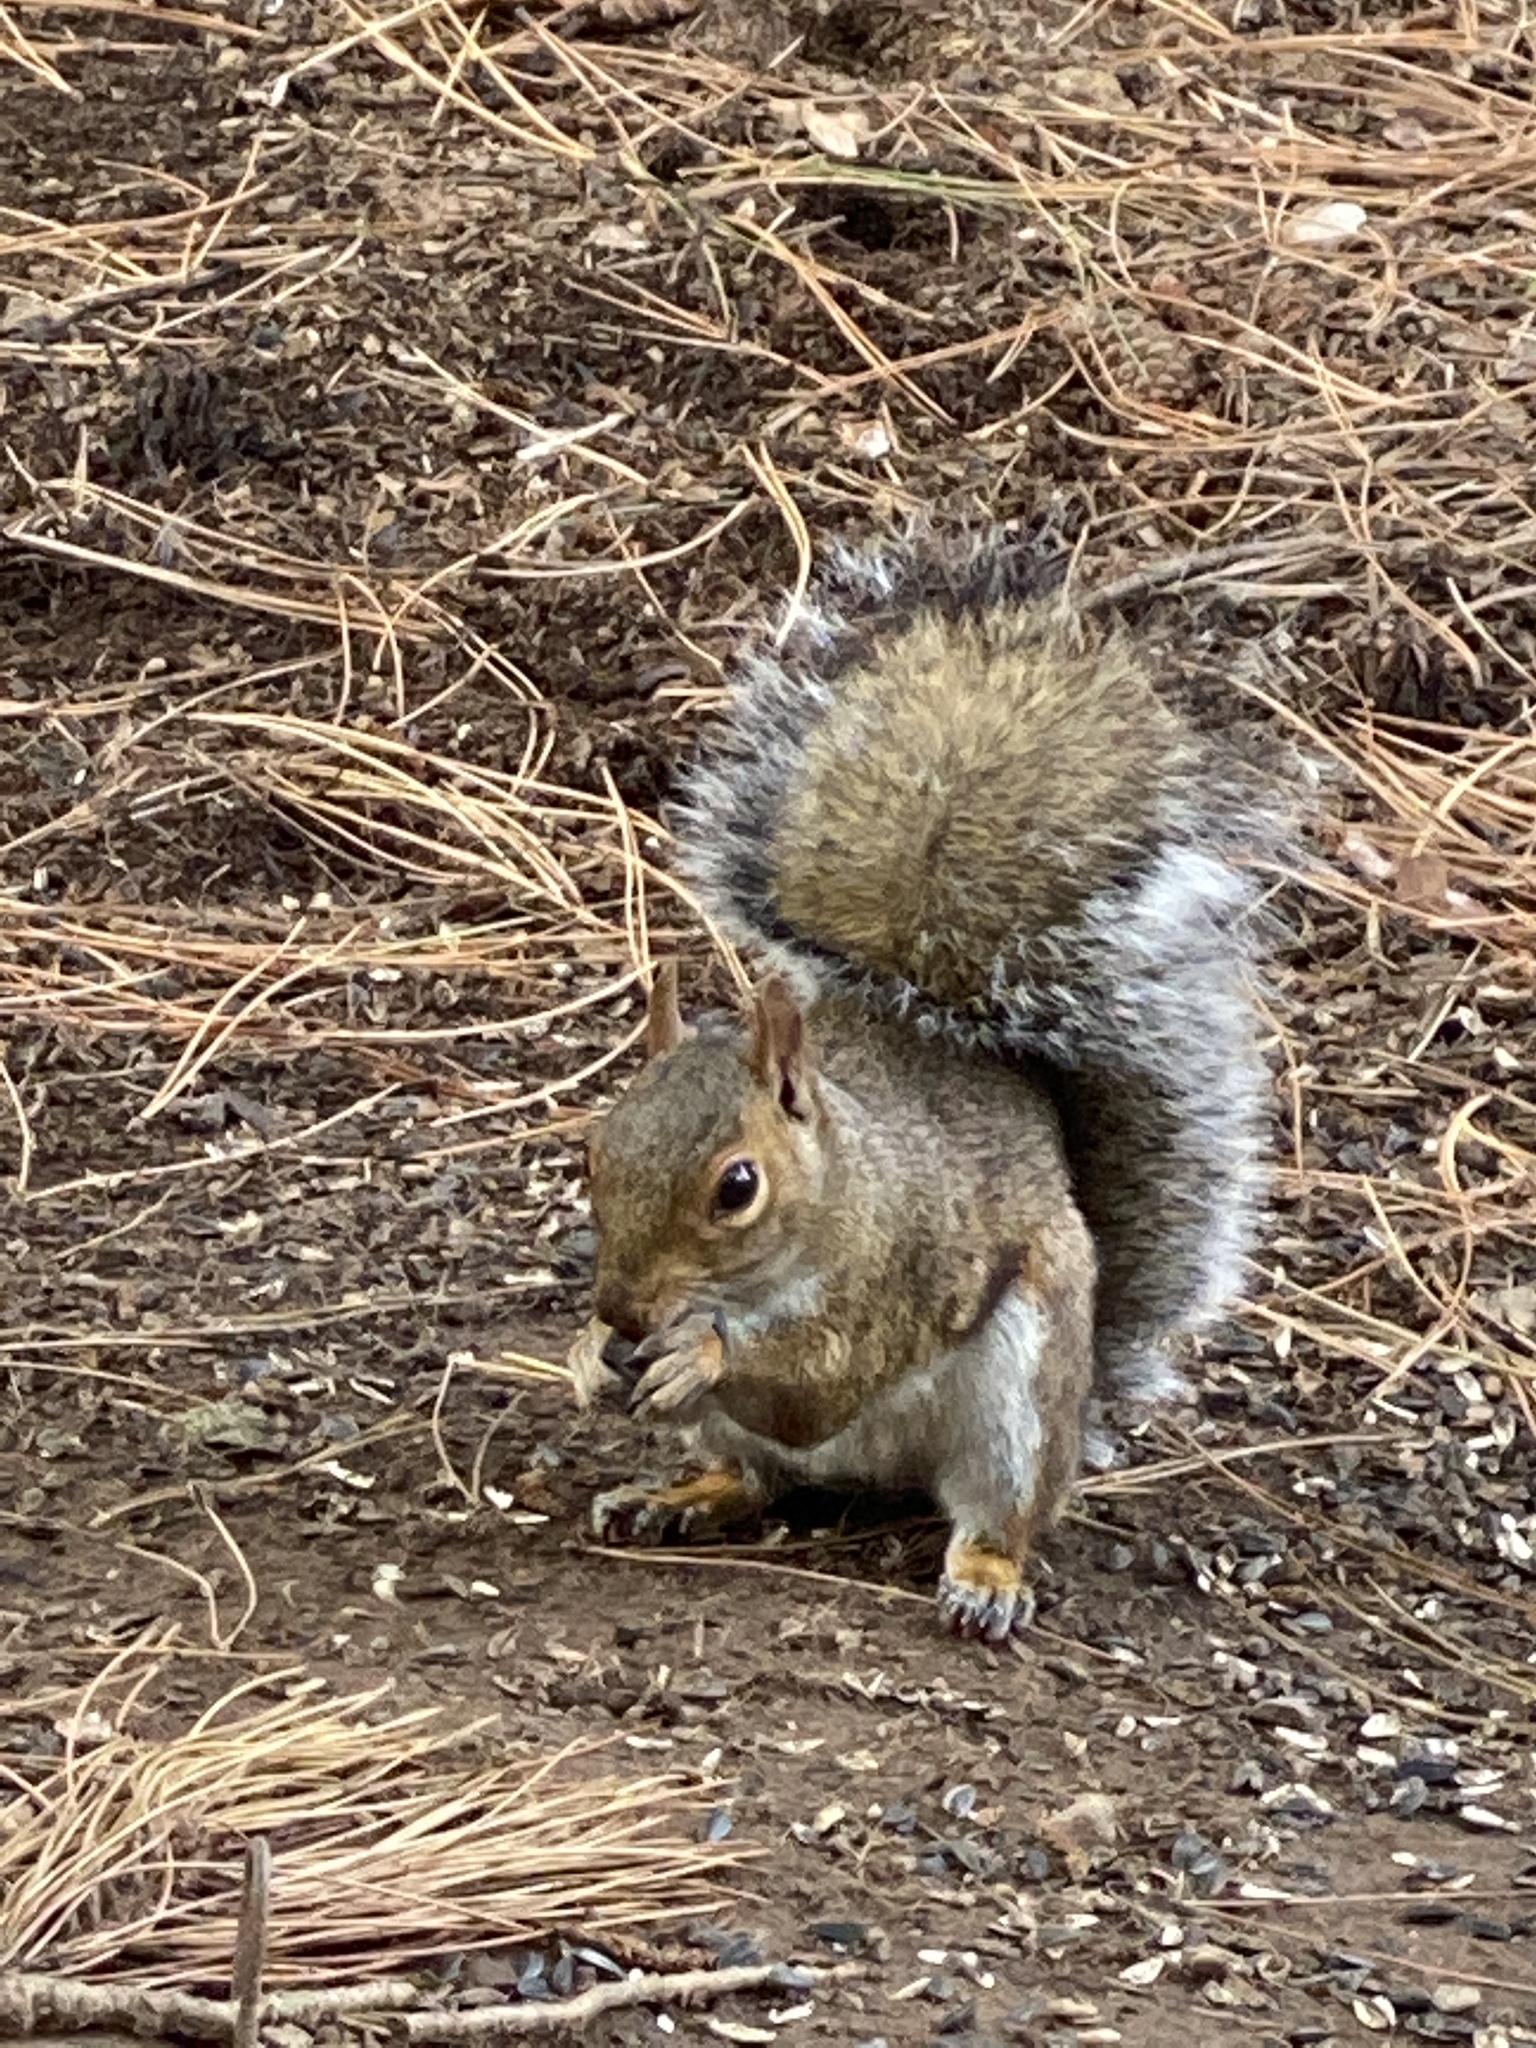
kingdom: Animalia
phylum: Chordata
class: Mammalia
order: Rodentia
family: Sciuridae
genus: Sciurus
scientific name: Sciurus carolinensis
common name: Eastern gray squirrel
